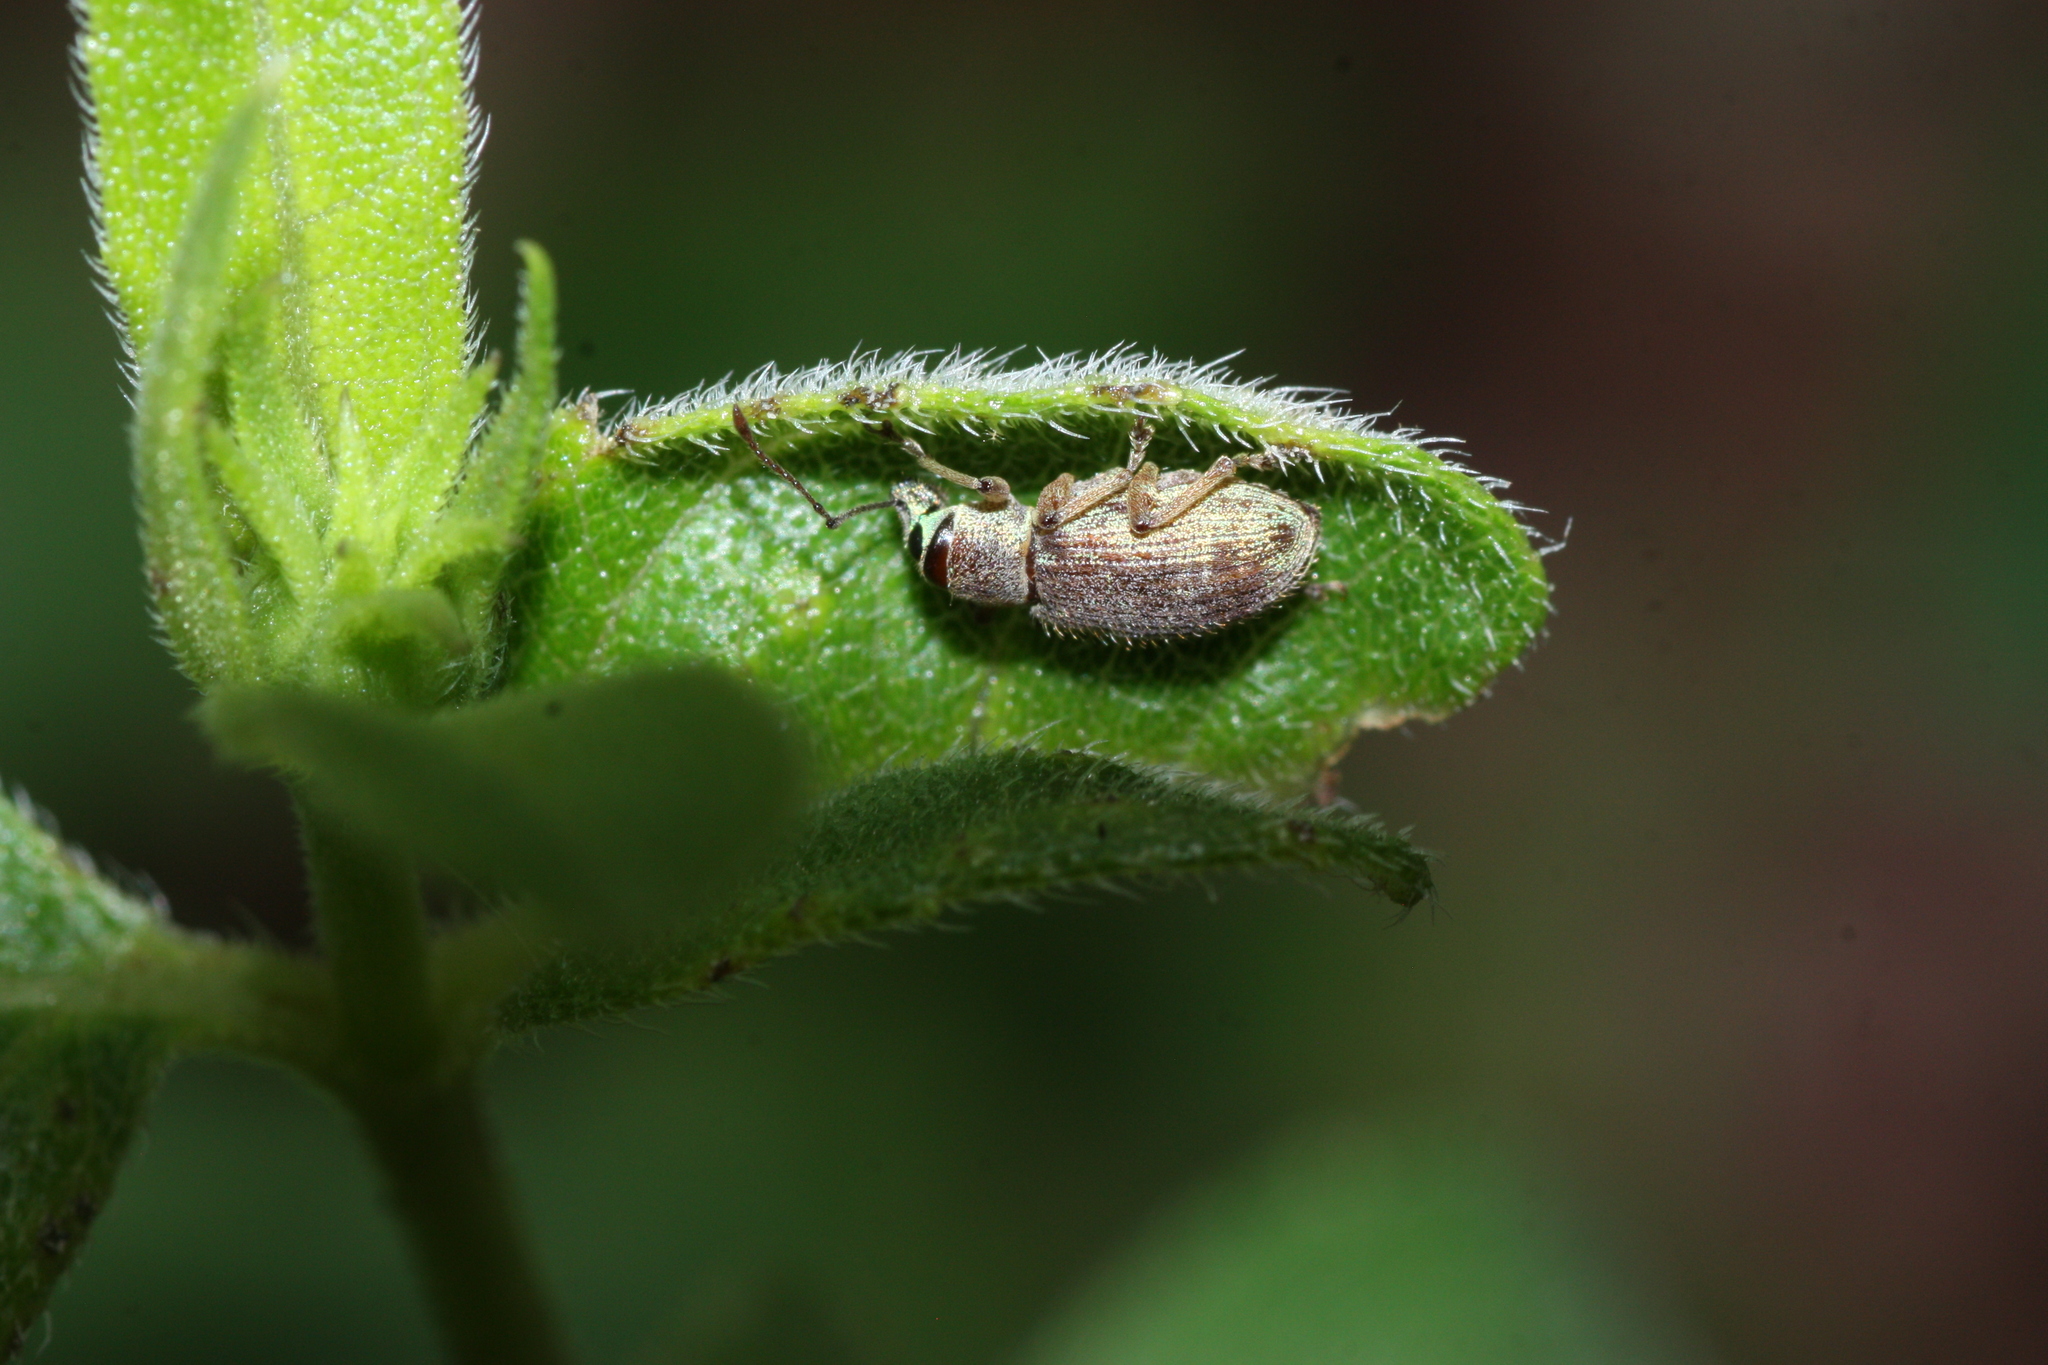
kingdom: Animalia
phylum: Arthropoda
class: Insecta
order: Coleoptera
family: Curculionidae
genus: Cyrtepistomus
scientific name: Cyrtepistomus castaneus
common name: Weevil
